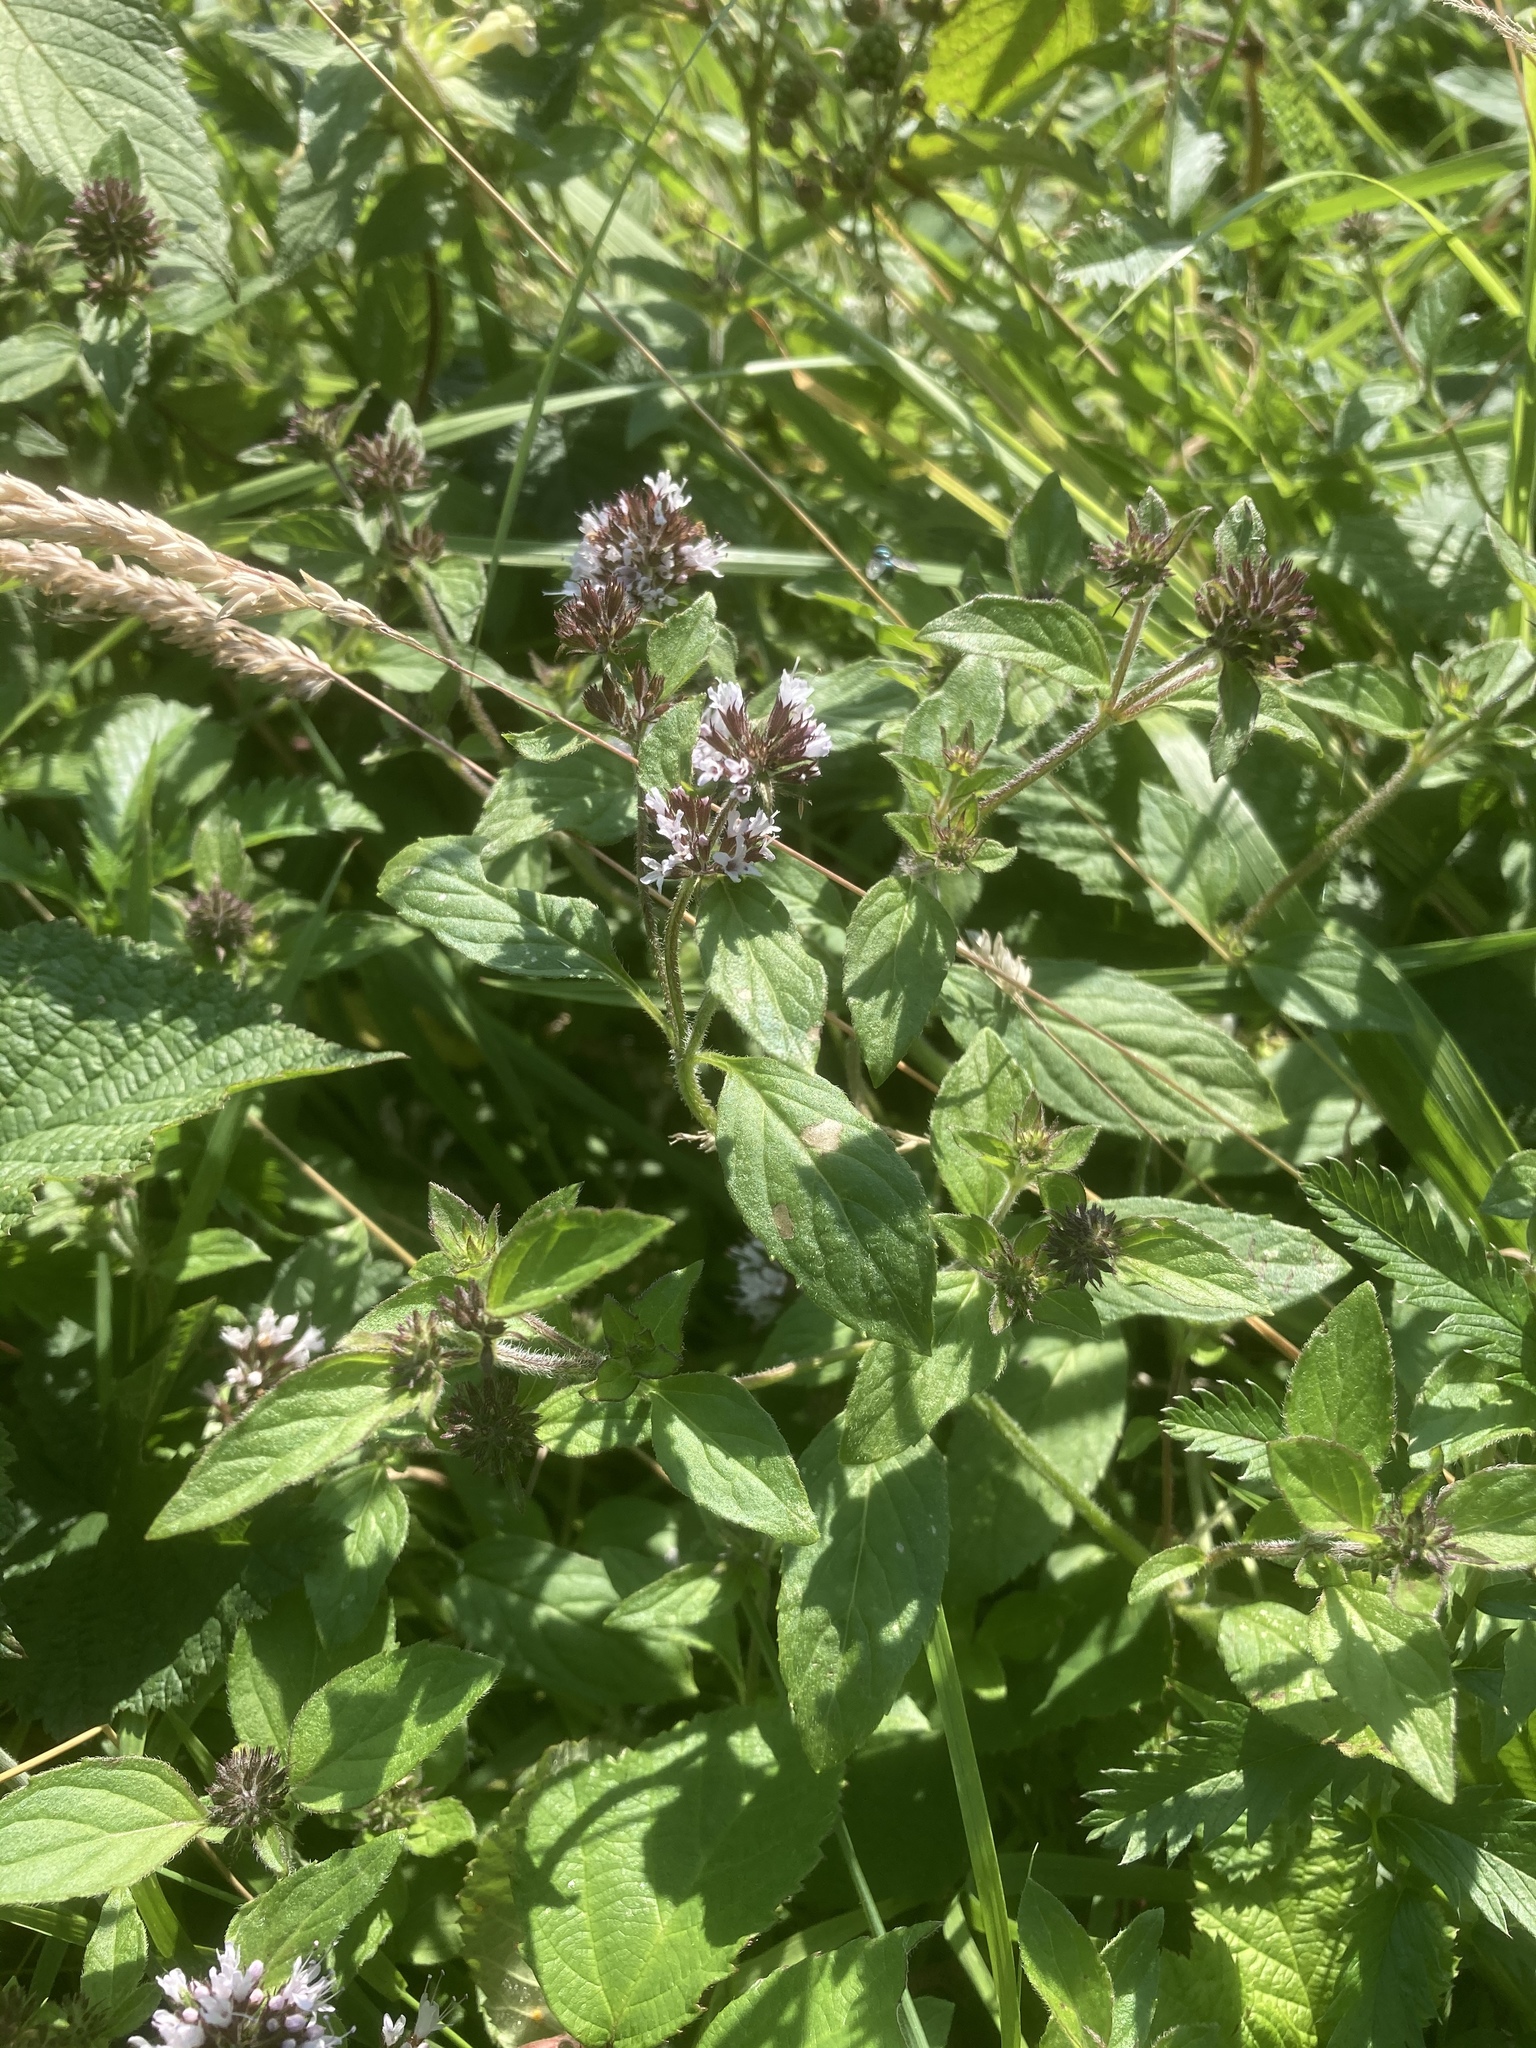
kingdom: Plantae
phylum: Tracheophyta
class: Magnoliopsida
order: Lamiales
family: Lamiaceae
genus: Mentha
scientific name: Mentha aquatica
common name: Water mint
